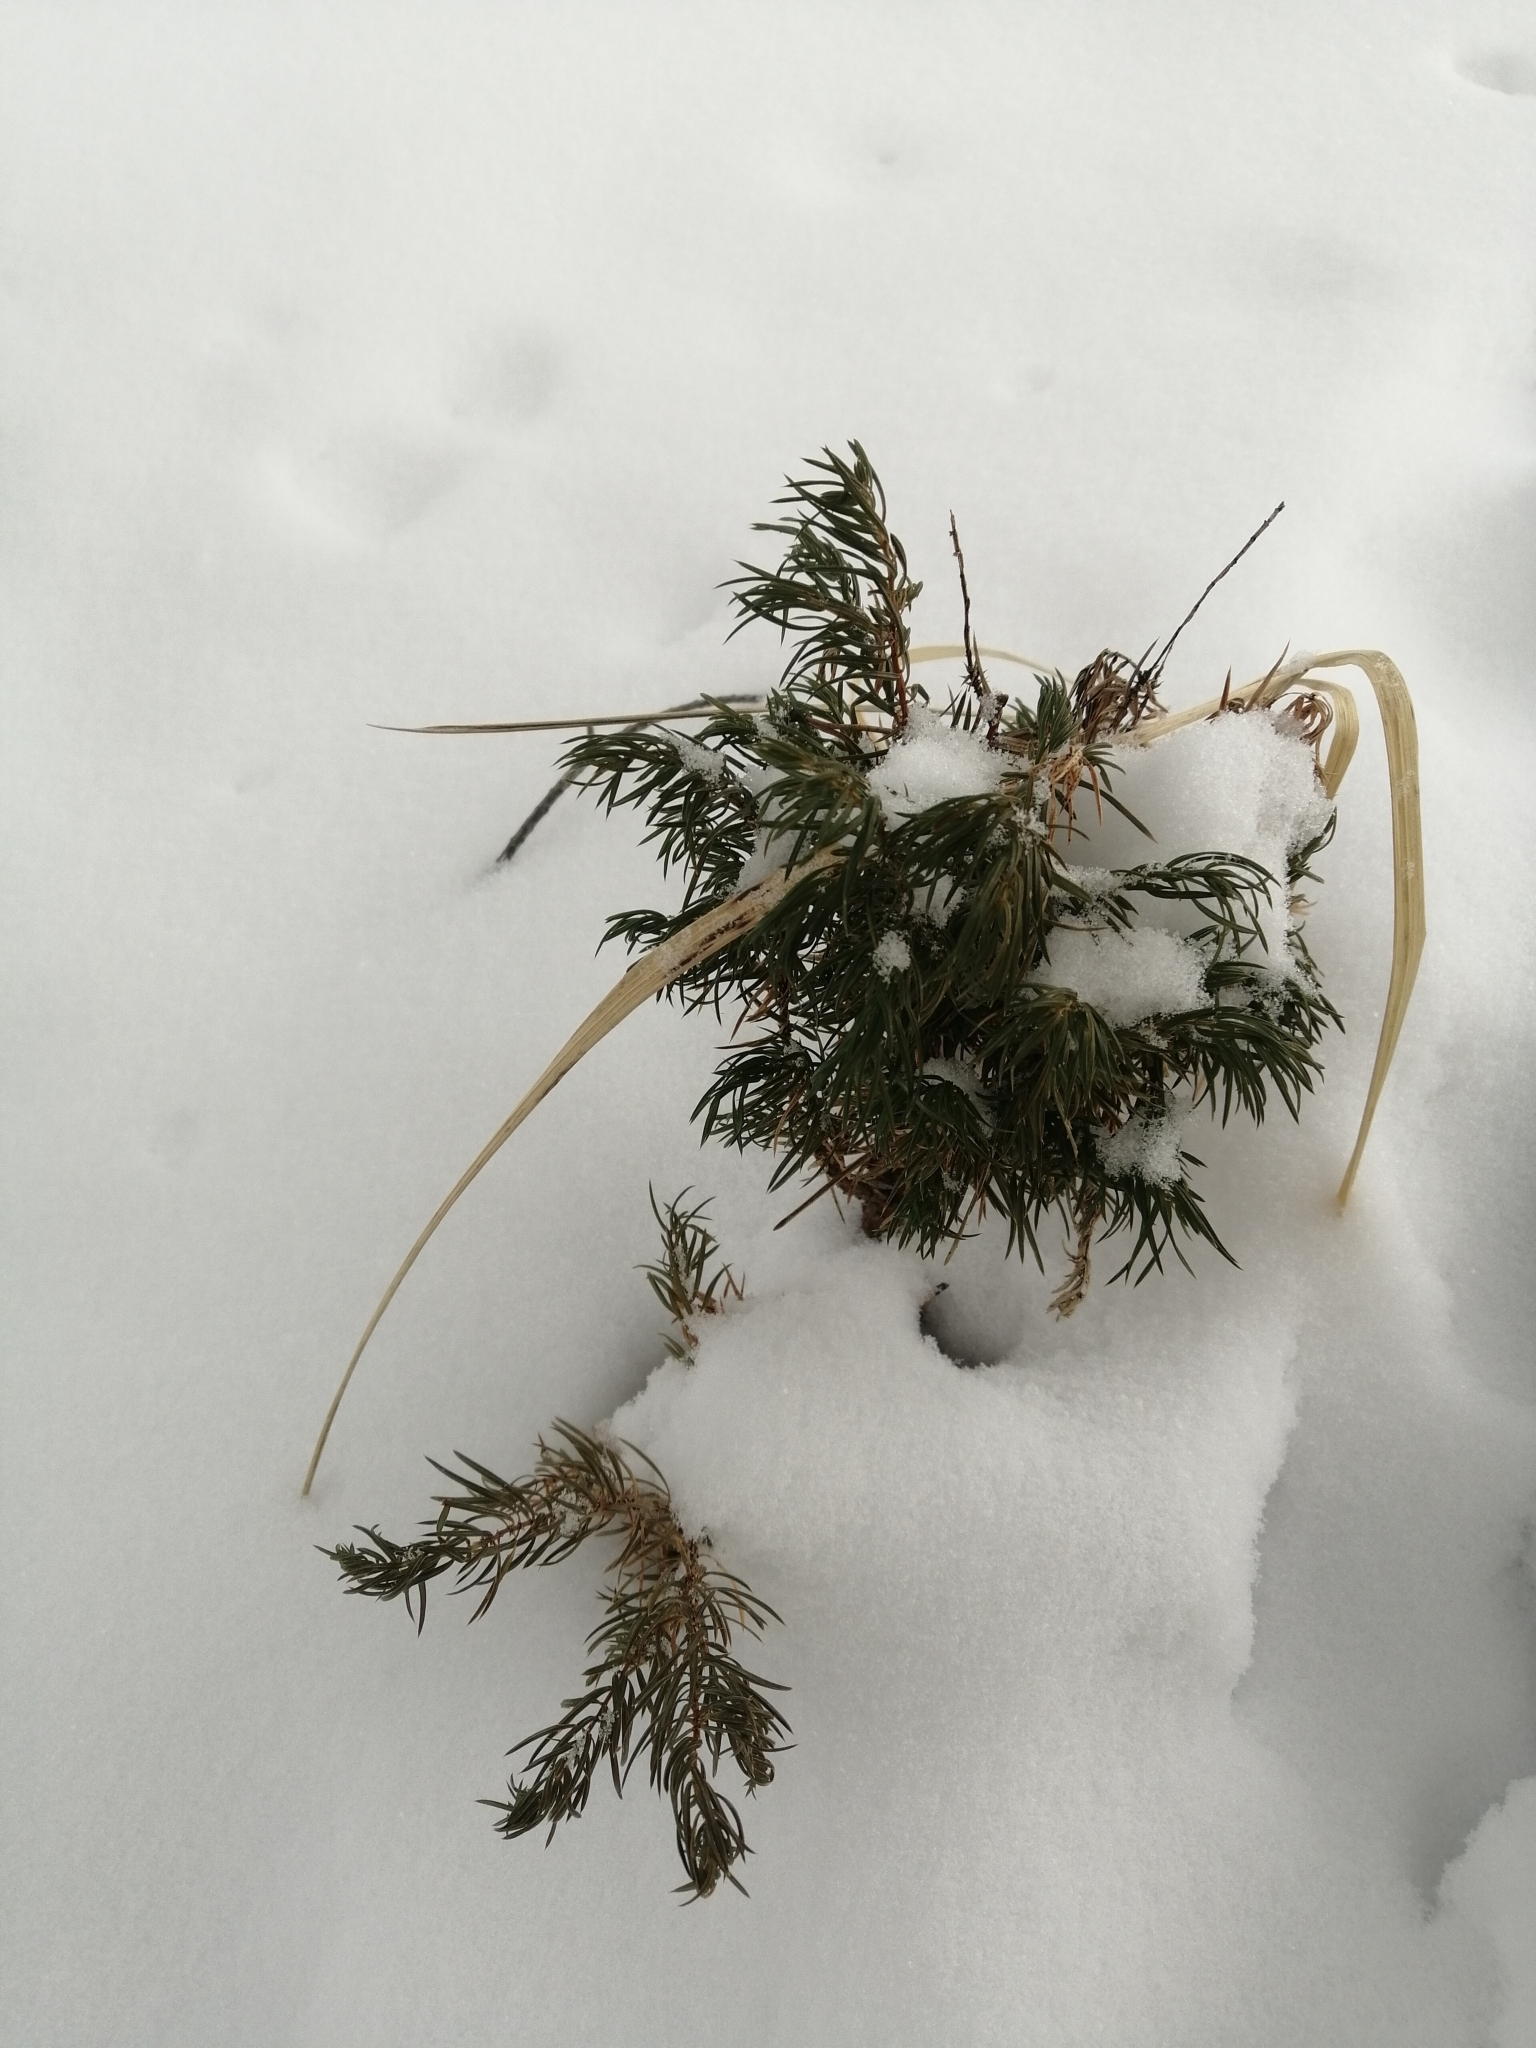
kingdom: Plantae
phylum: Tracheophyta
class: Pinopsida
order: Pinales
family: Cupressaceae
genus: Juniperus
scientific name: Juniperus communis
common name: Common juniper
